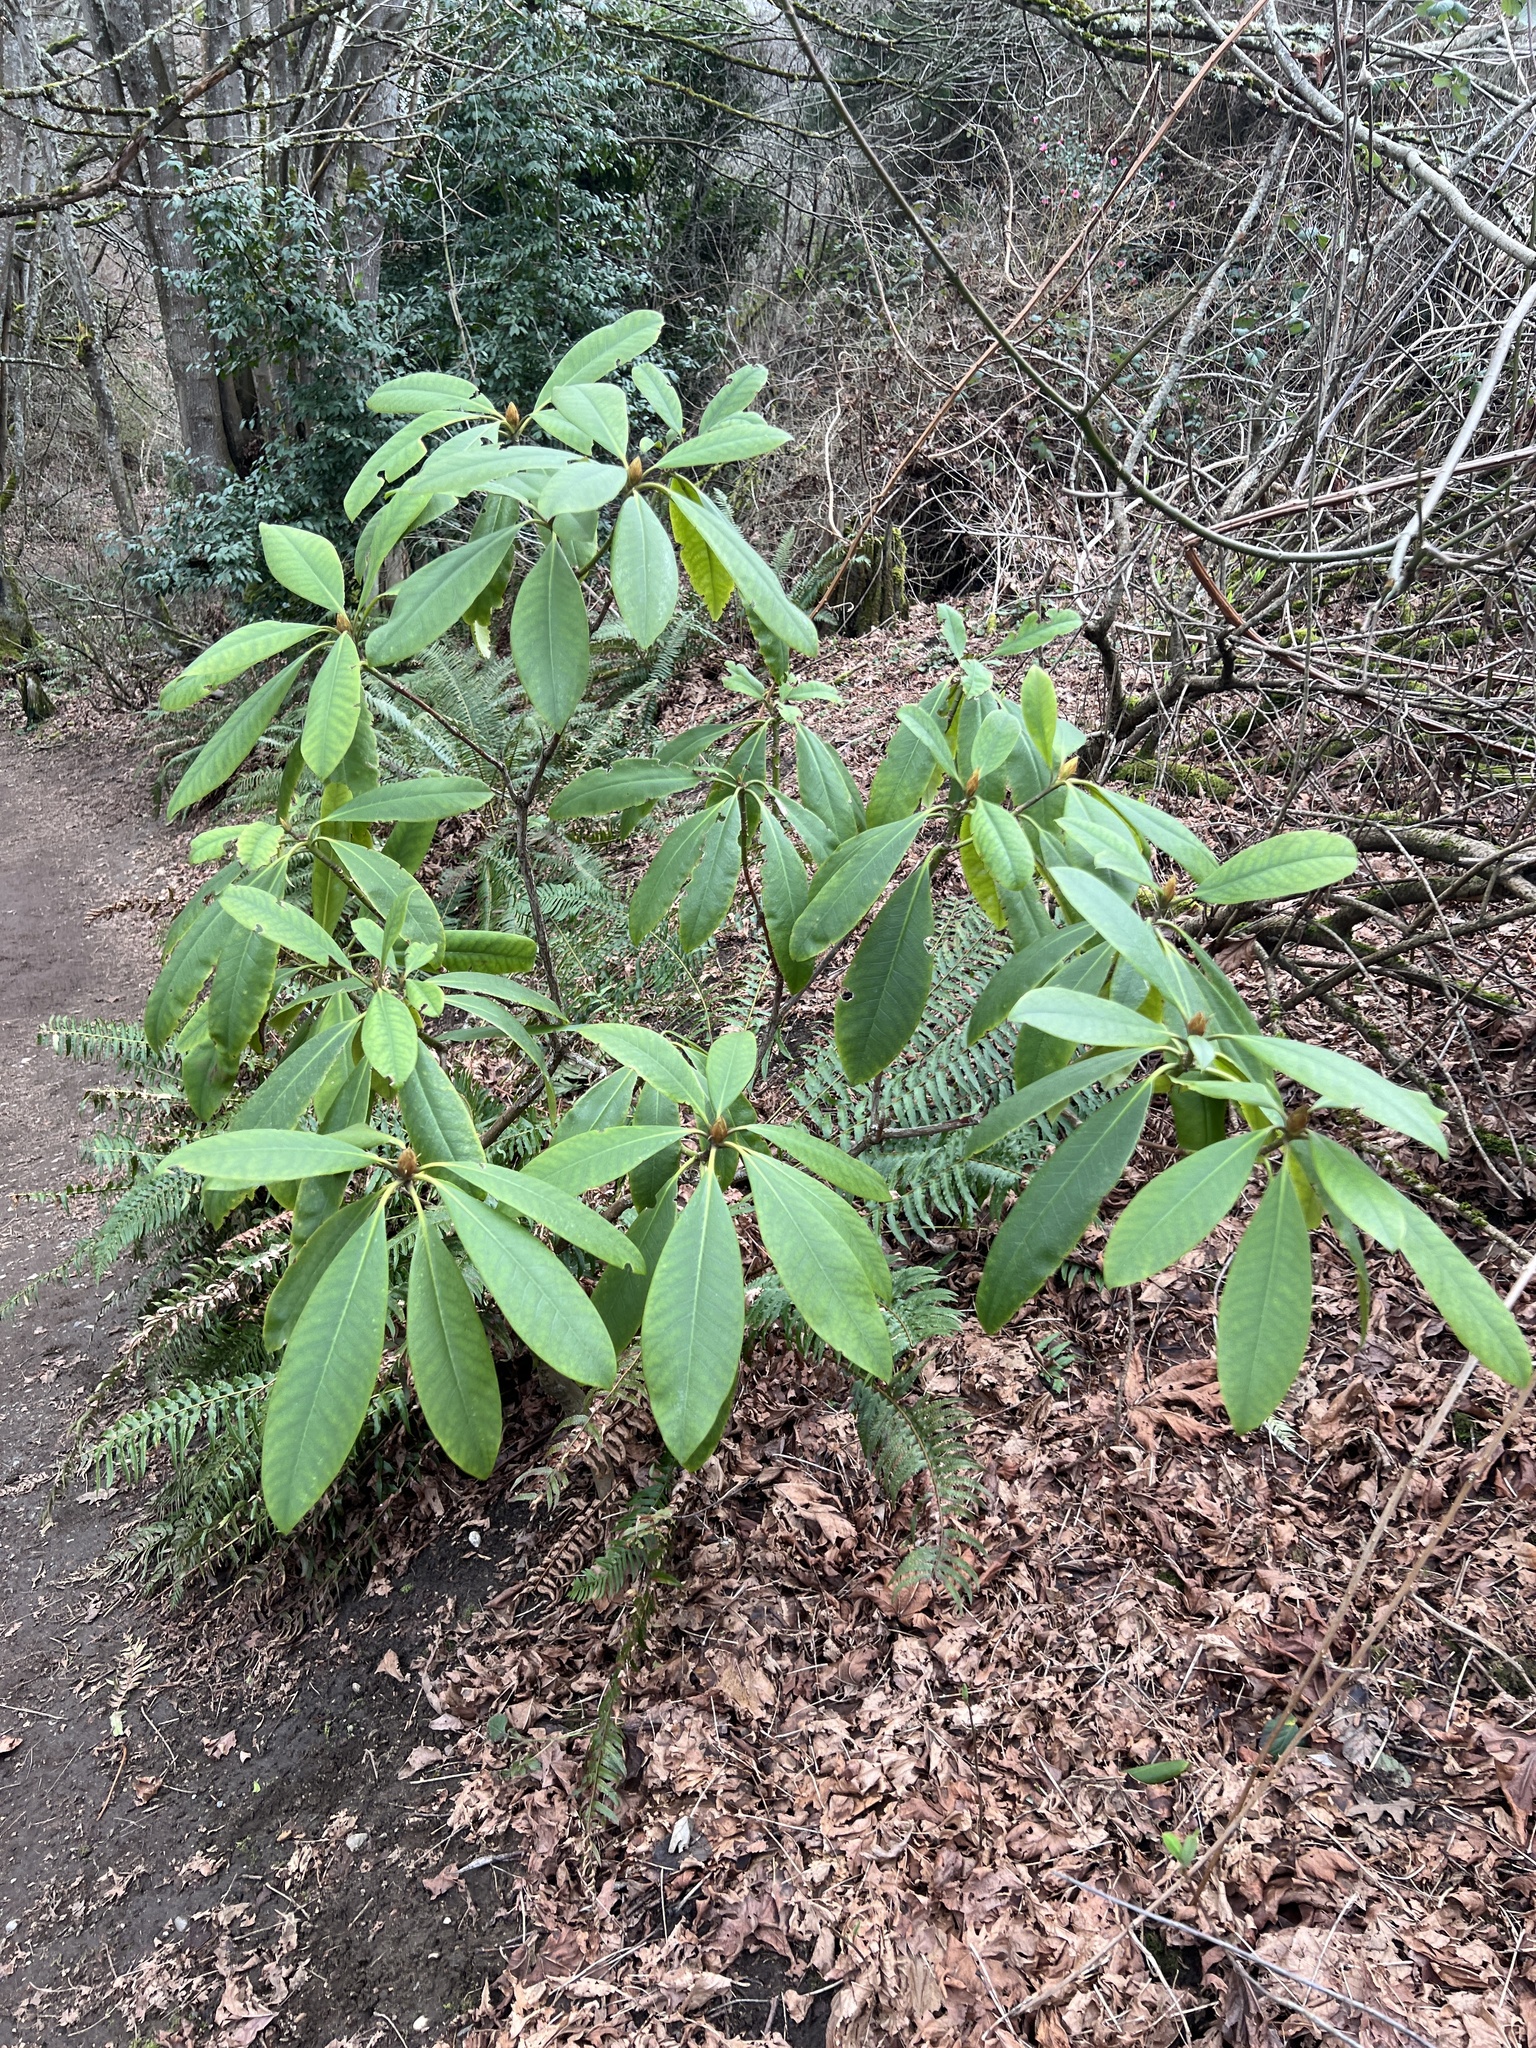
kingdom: Plantae
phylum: Tracheophyta
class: Magnoliopsida
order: Ericales
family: Ericaceae
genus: Rhododendron
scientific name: Rhododendron macrophyllum
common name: California rose bay
